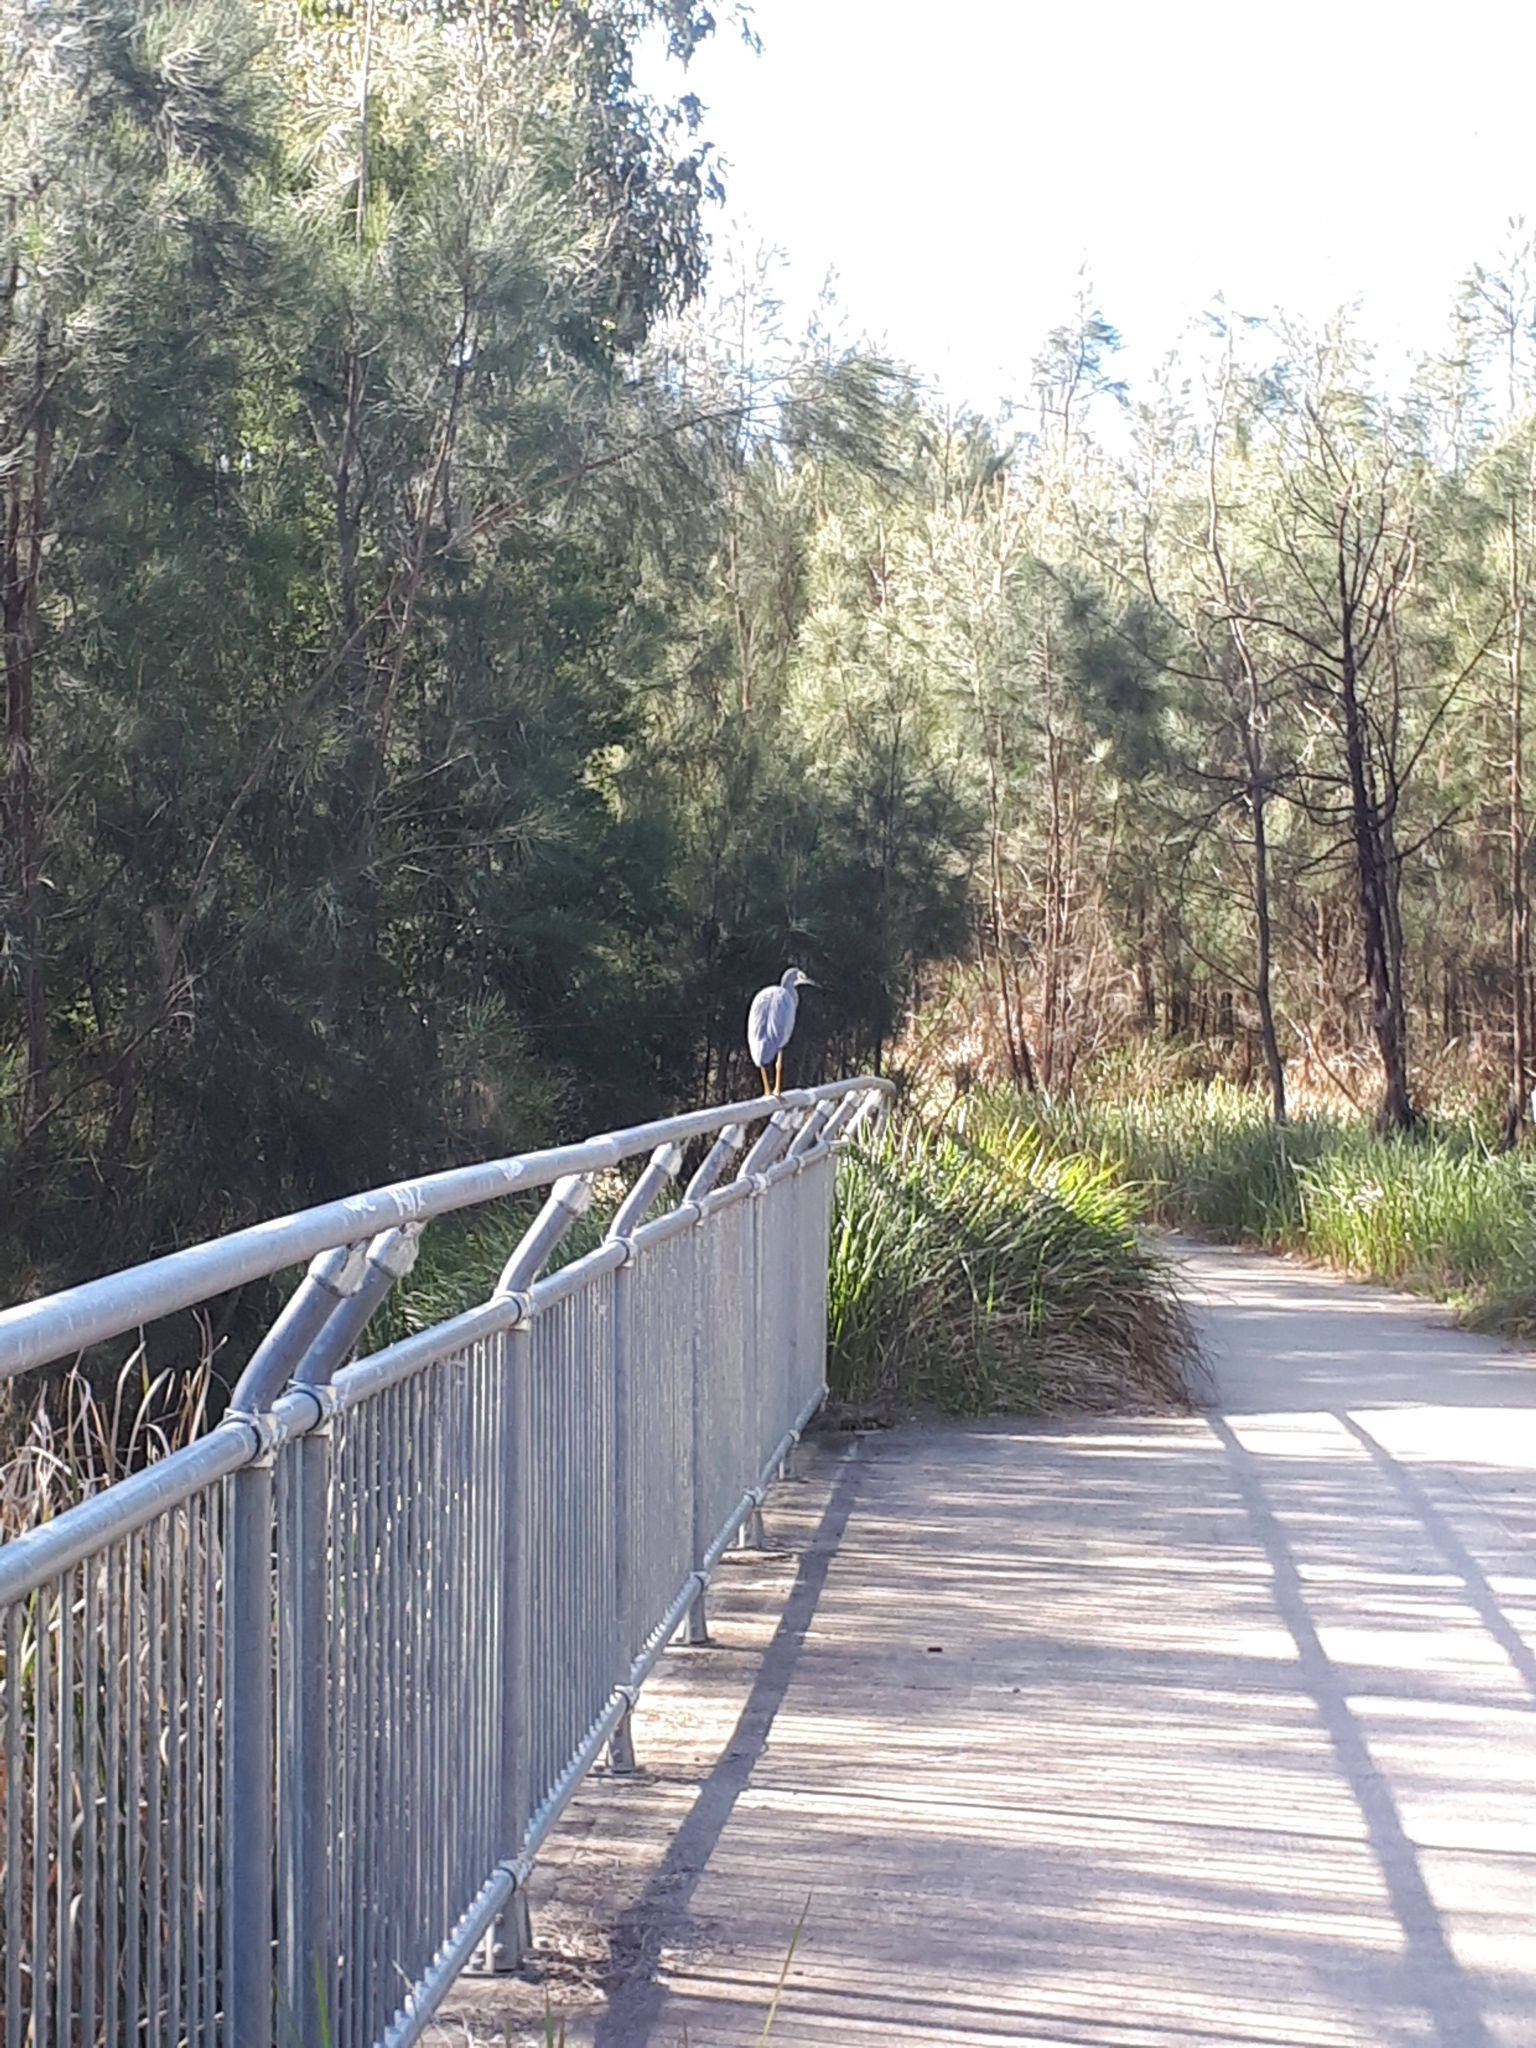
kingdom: Animalia
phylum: Chordata
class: Aves
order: Pelecaniformes
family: Ardeidae
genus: Egretta
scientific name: Egretta novaehollandiae
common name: White-faced heron
